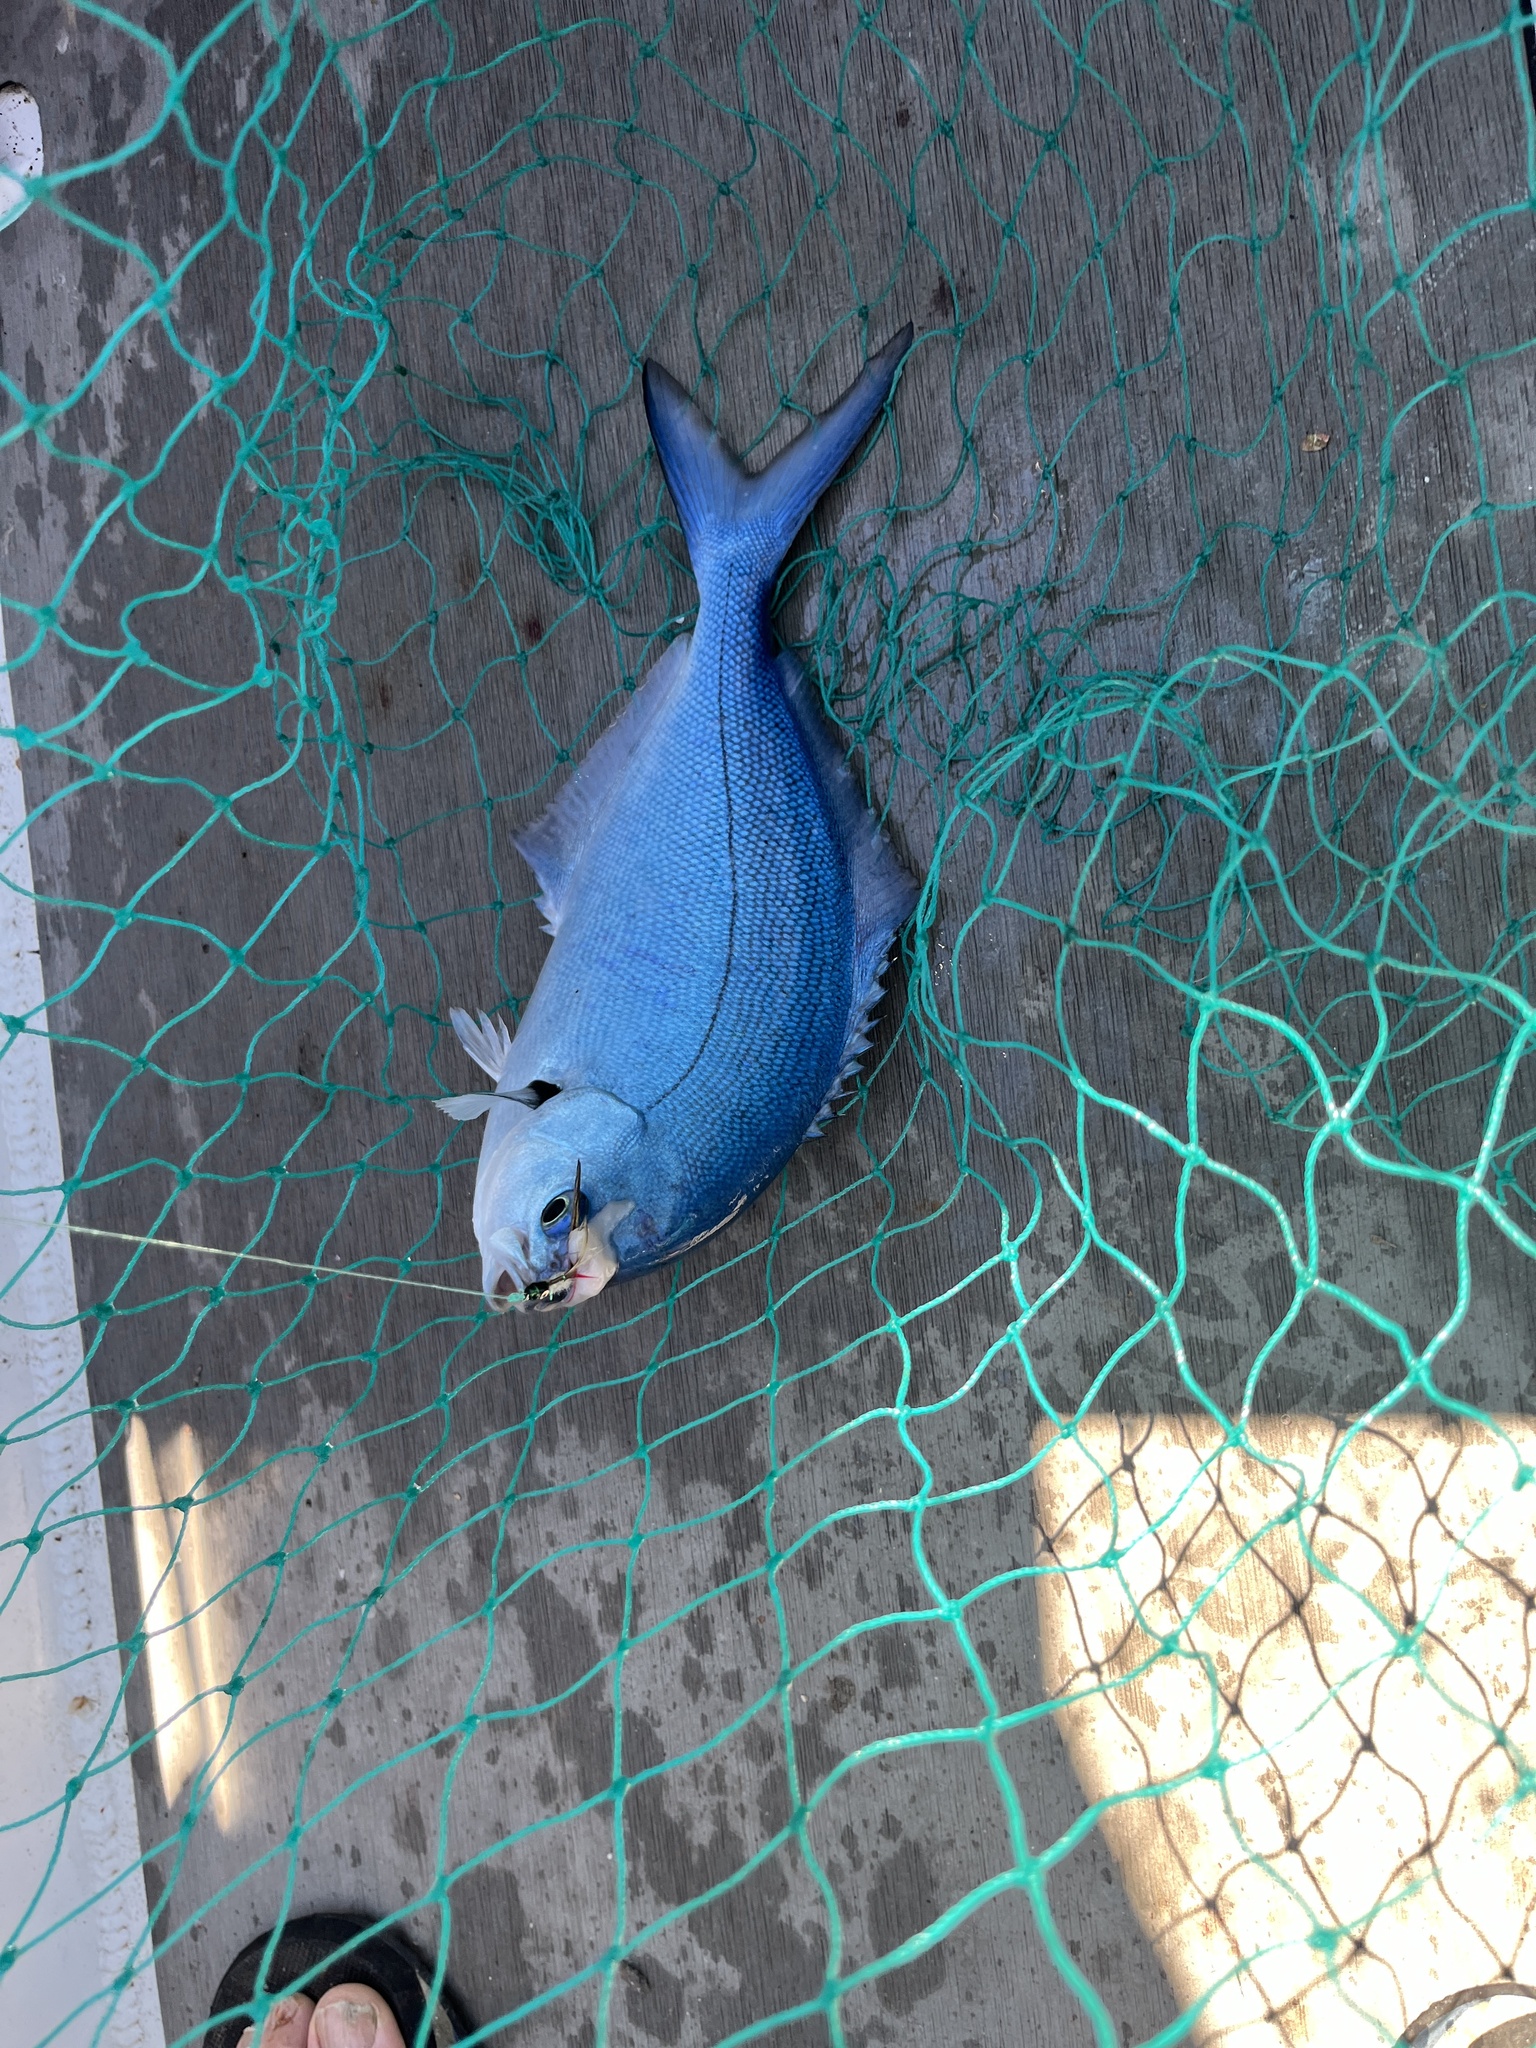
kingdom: Animalia
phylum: Chordata
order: Perciformes
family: Kyphosidae
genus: Scorpis
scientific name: Scorpis violacea
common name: Blue maomao
